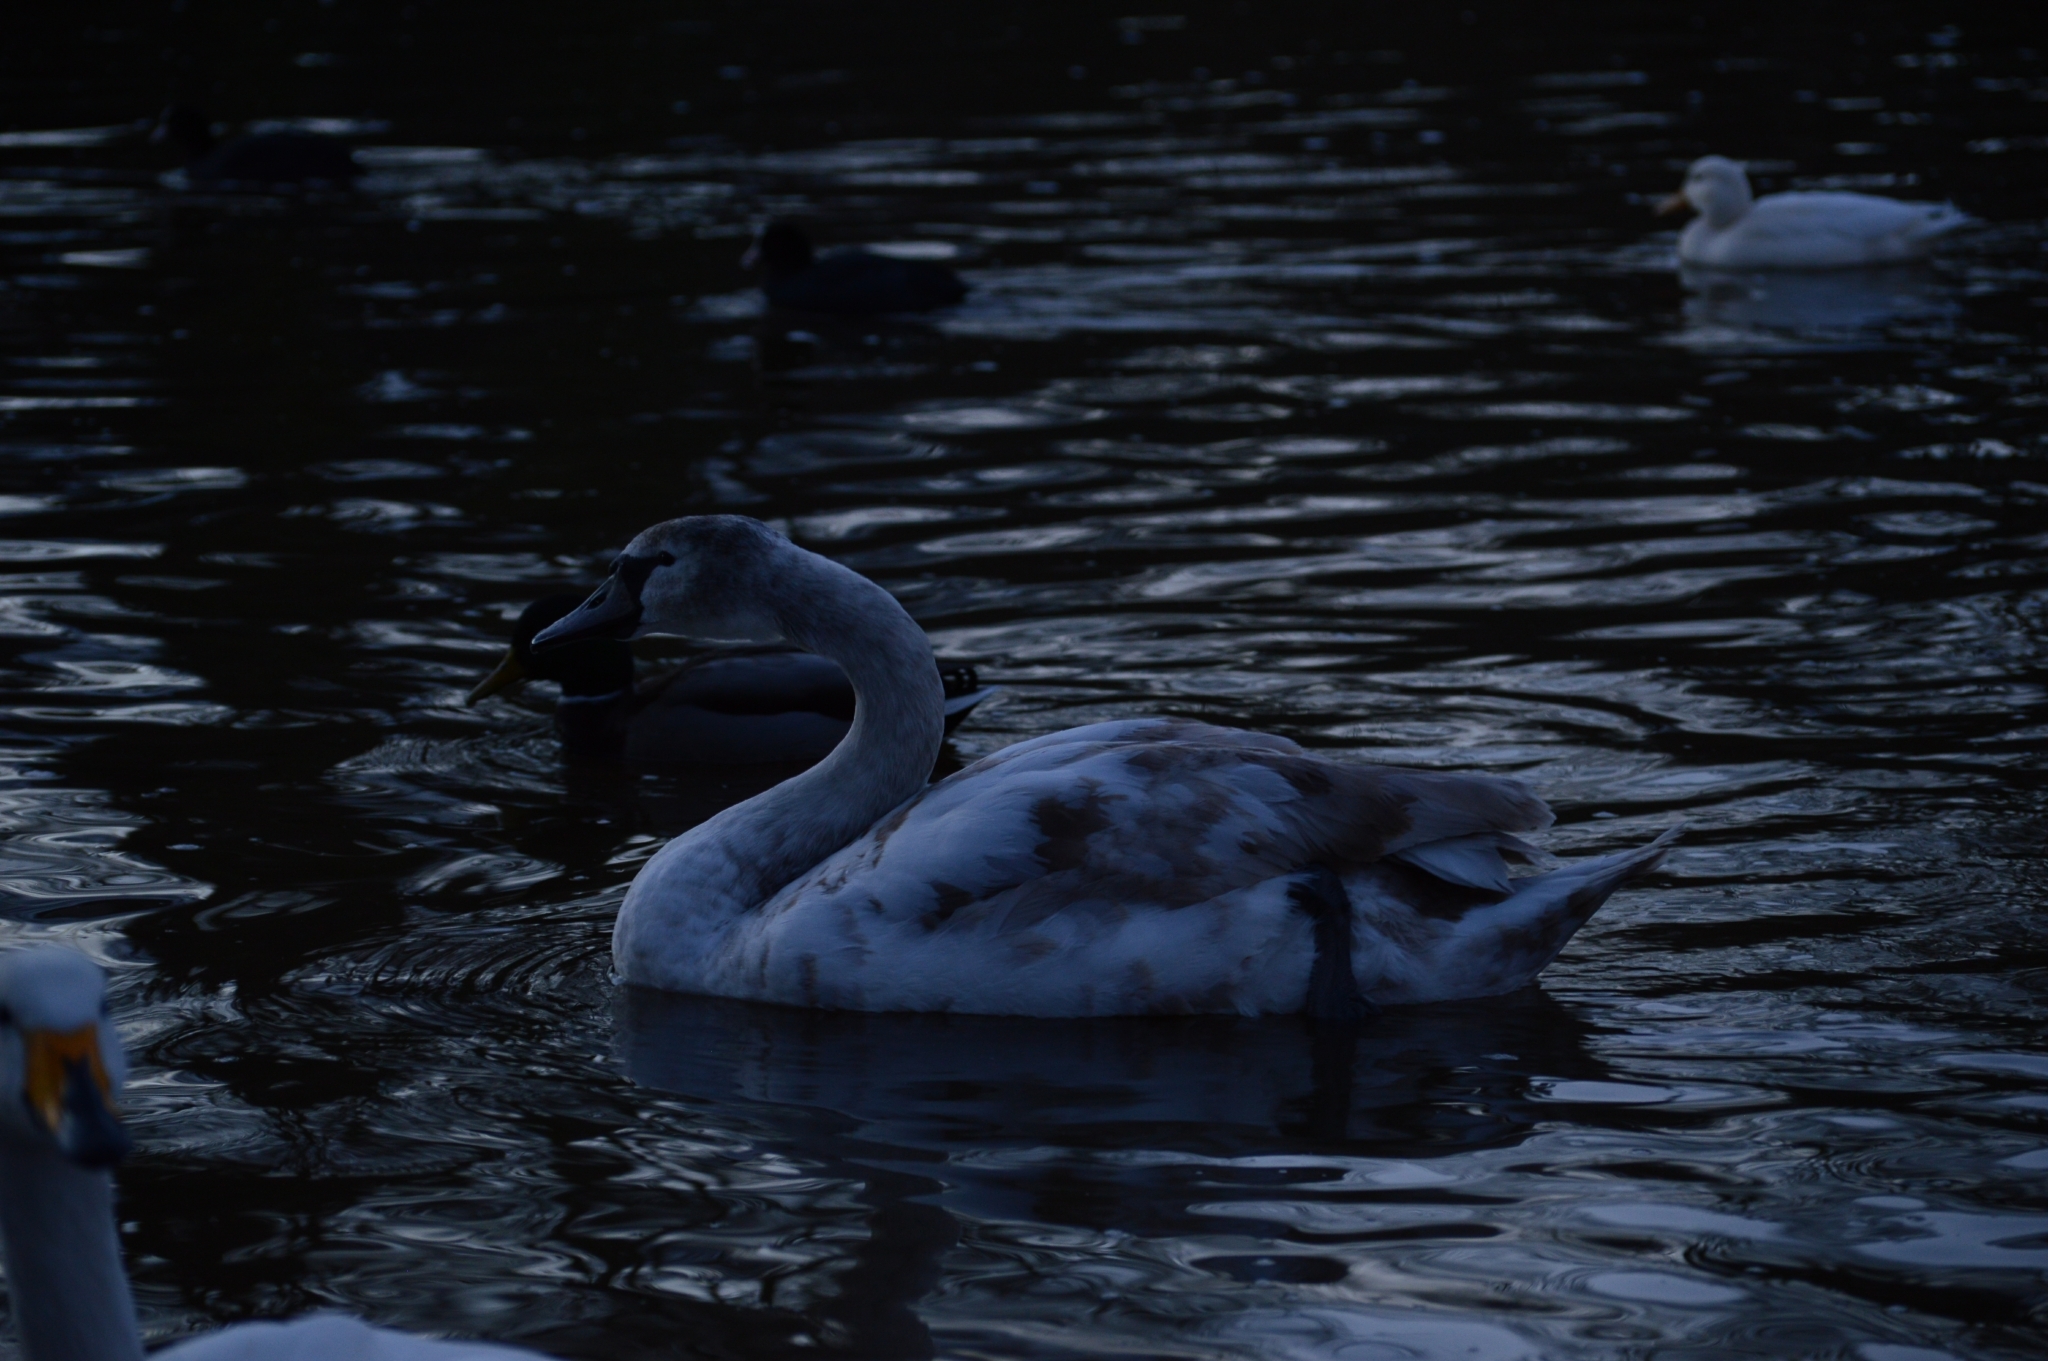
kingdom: Animalia
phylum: Chordata
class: Aves
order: Anseriformes
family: Anatidae
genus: Cygnus
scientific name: Cygnus olor
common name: Mute swan
